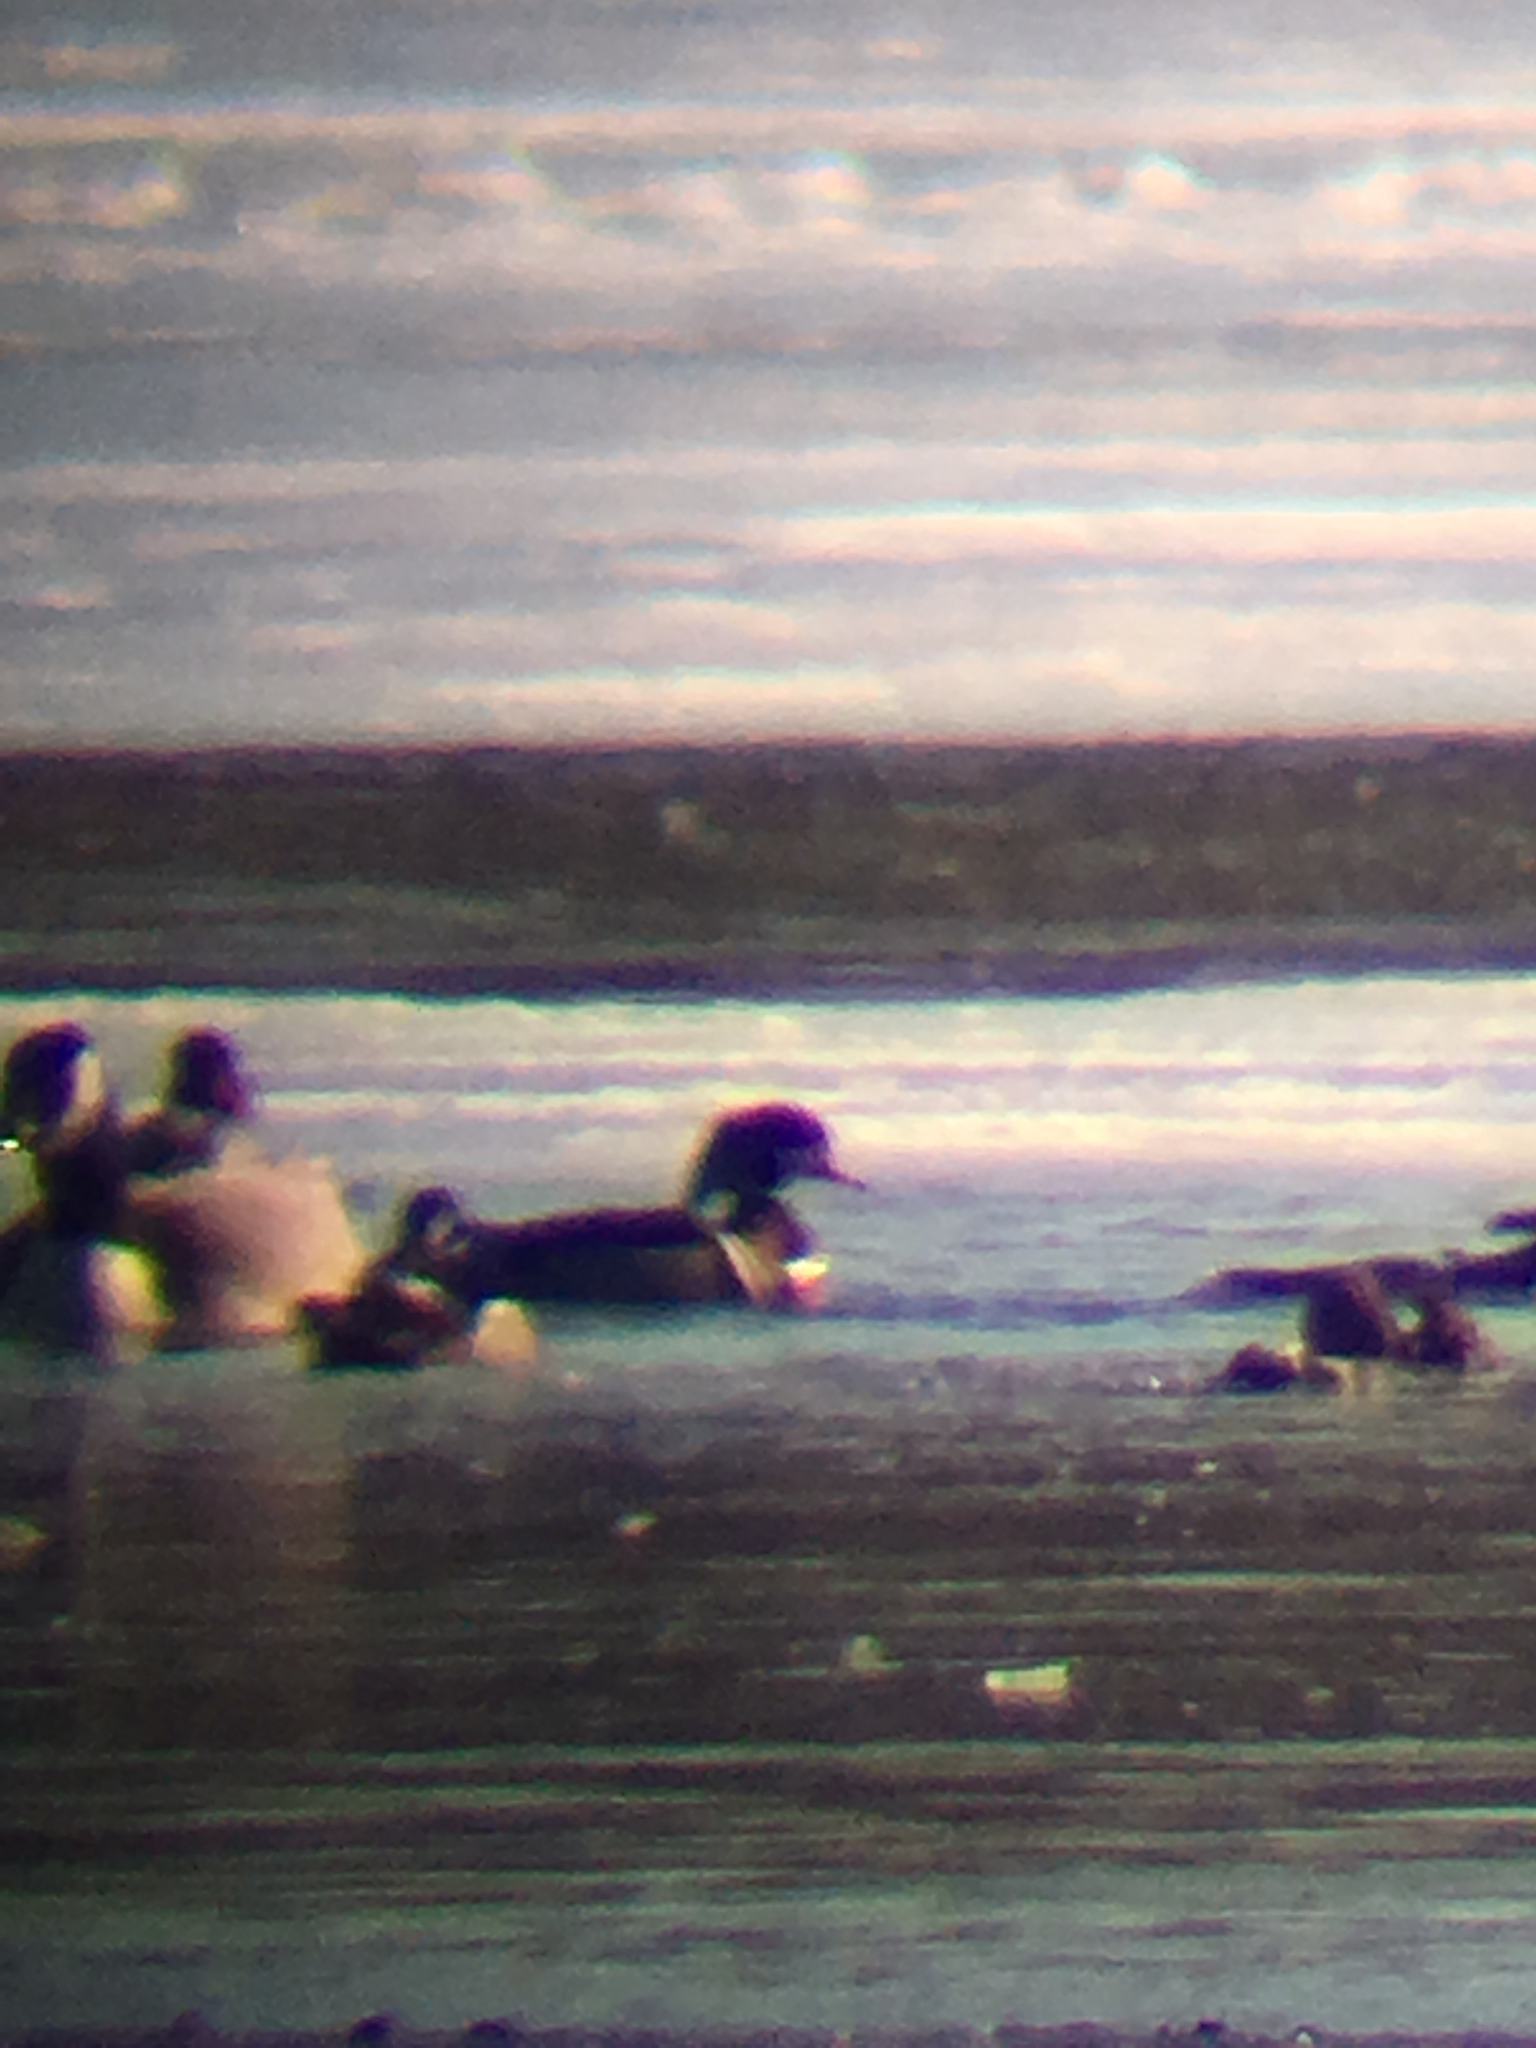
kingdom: Animalia
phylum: Chordata
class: Aves
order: Anseriformes
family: Anatidae
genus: Aix
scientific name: Aix sponsa
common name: Wood duck
